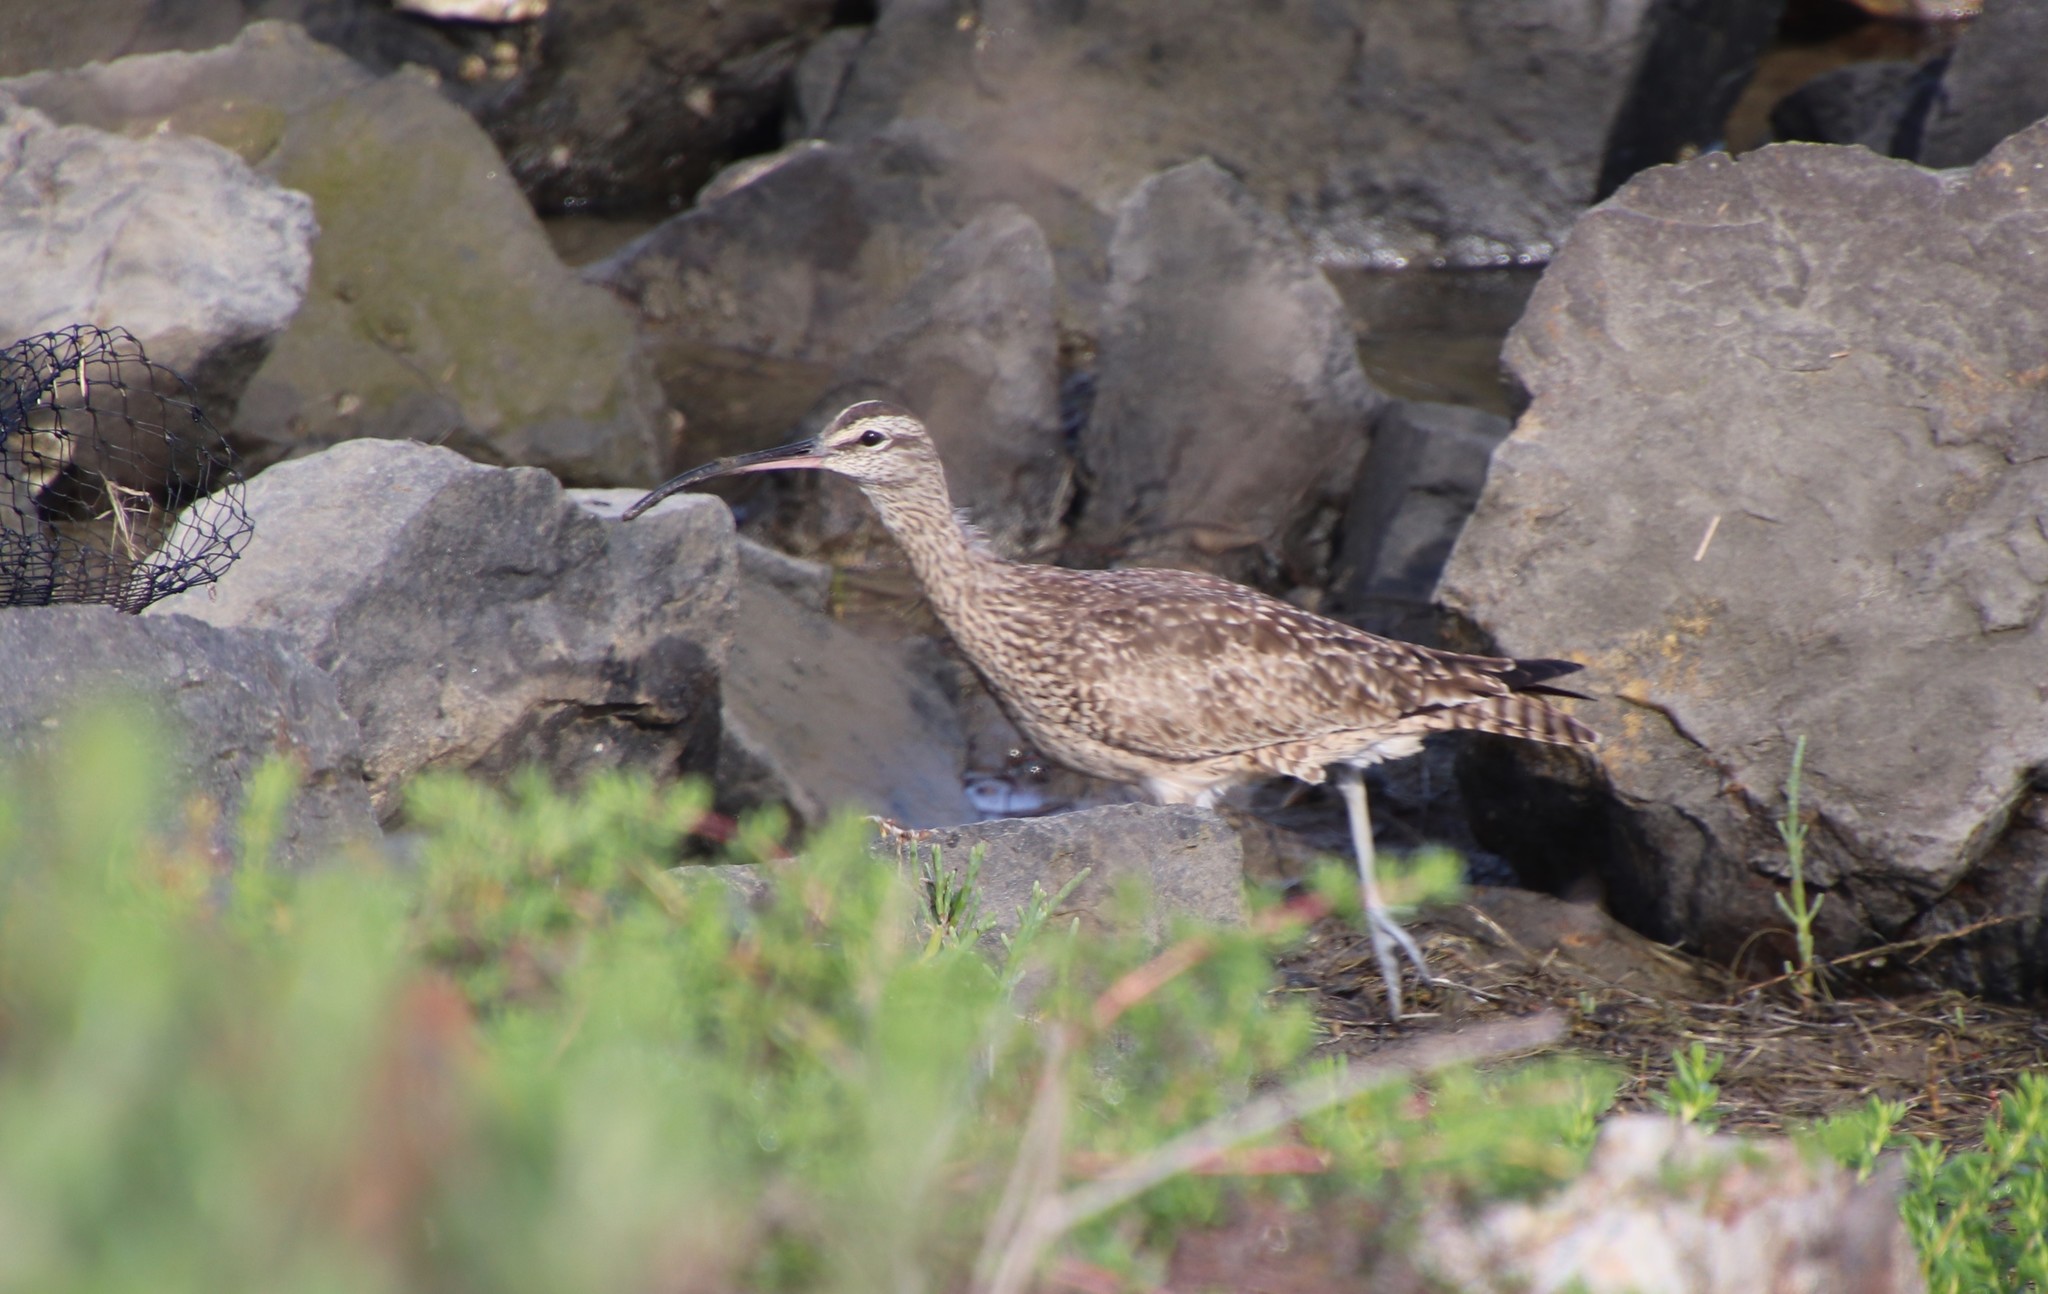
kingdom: Animalia
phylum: Chordata
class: Aves
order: Charadriiformes
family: Scolopacidae
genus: Numenius
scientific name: Numenius phaeopus
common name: Whimbrel
